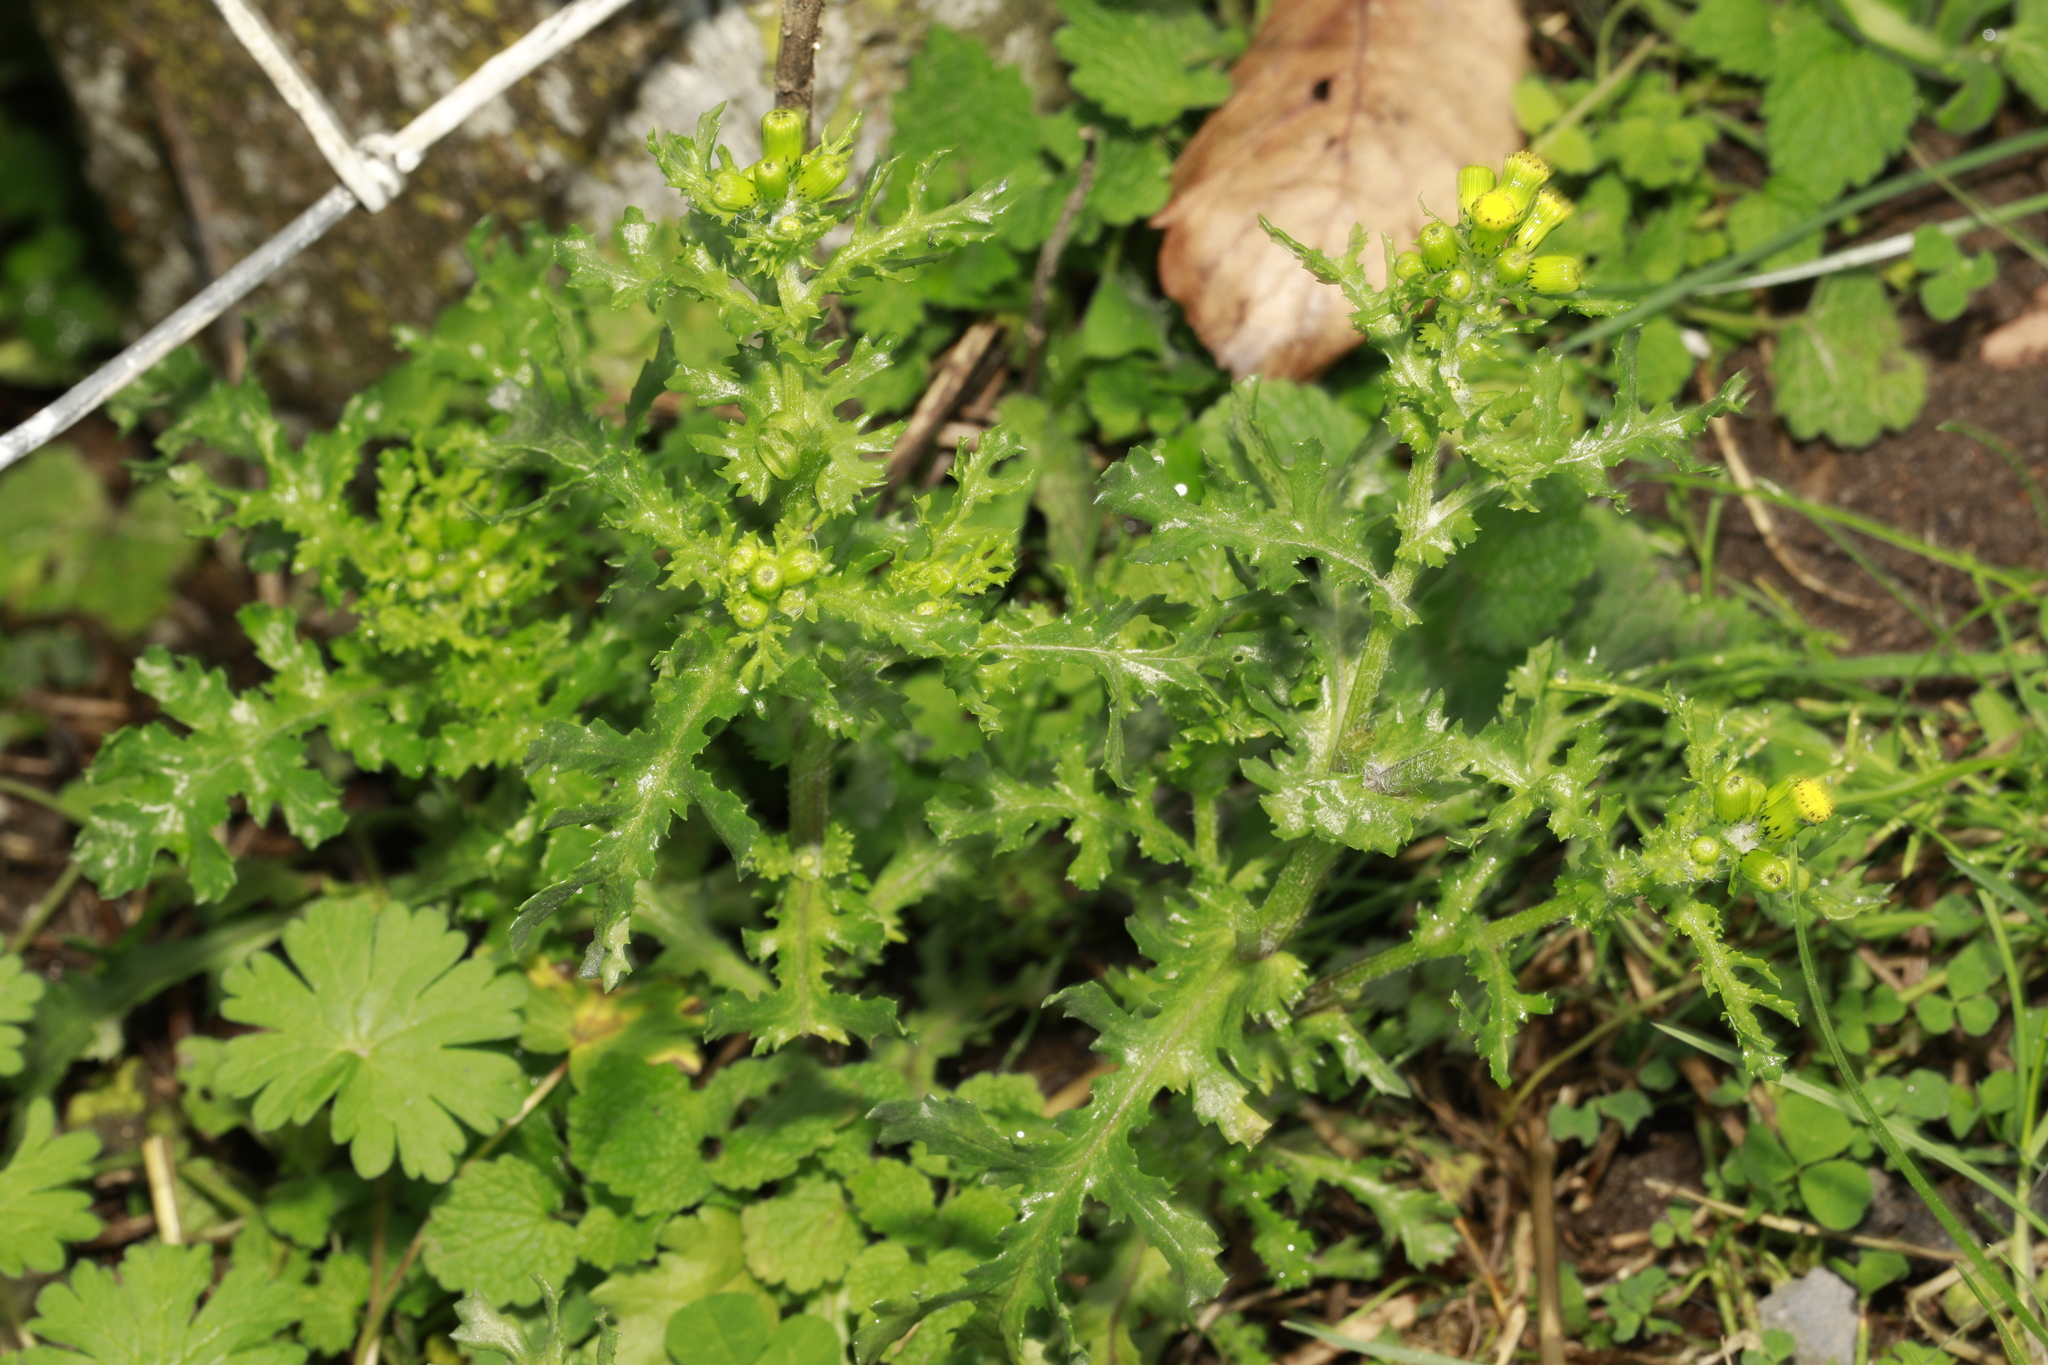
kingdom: Plantae
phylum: Tracheophyta
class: Magnoliopsida
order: Asterales
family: Asteraceae
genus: Senecio
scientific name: Senecio vulgaris
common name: Old-man-in-the-spring
